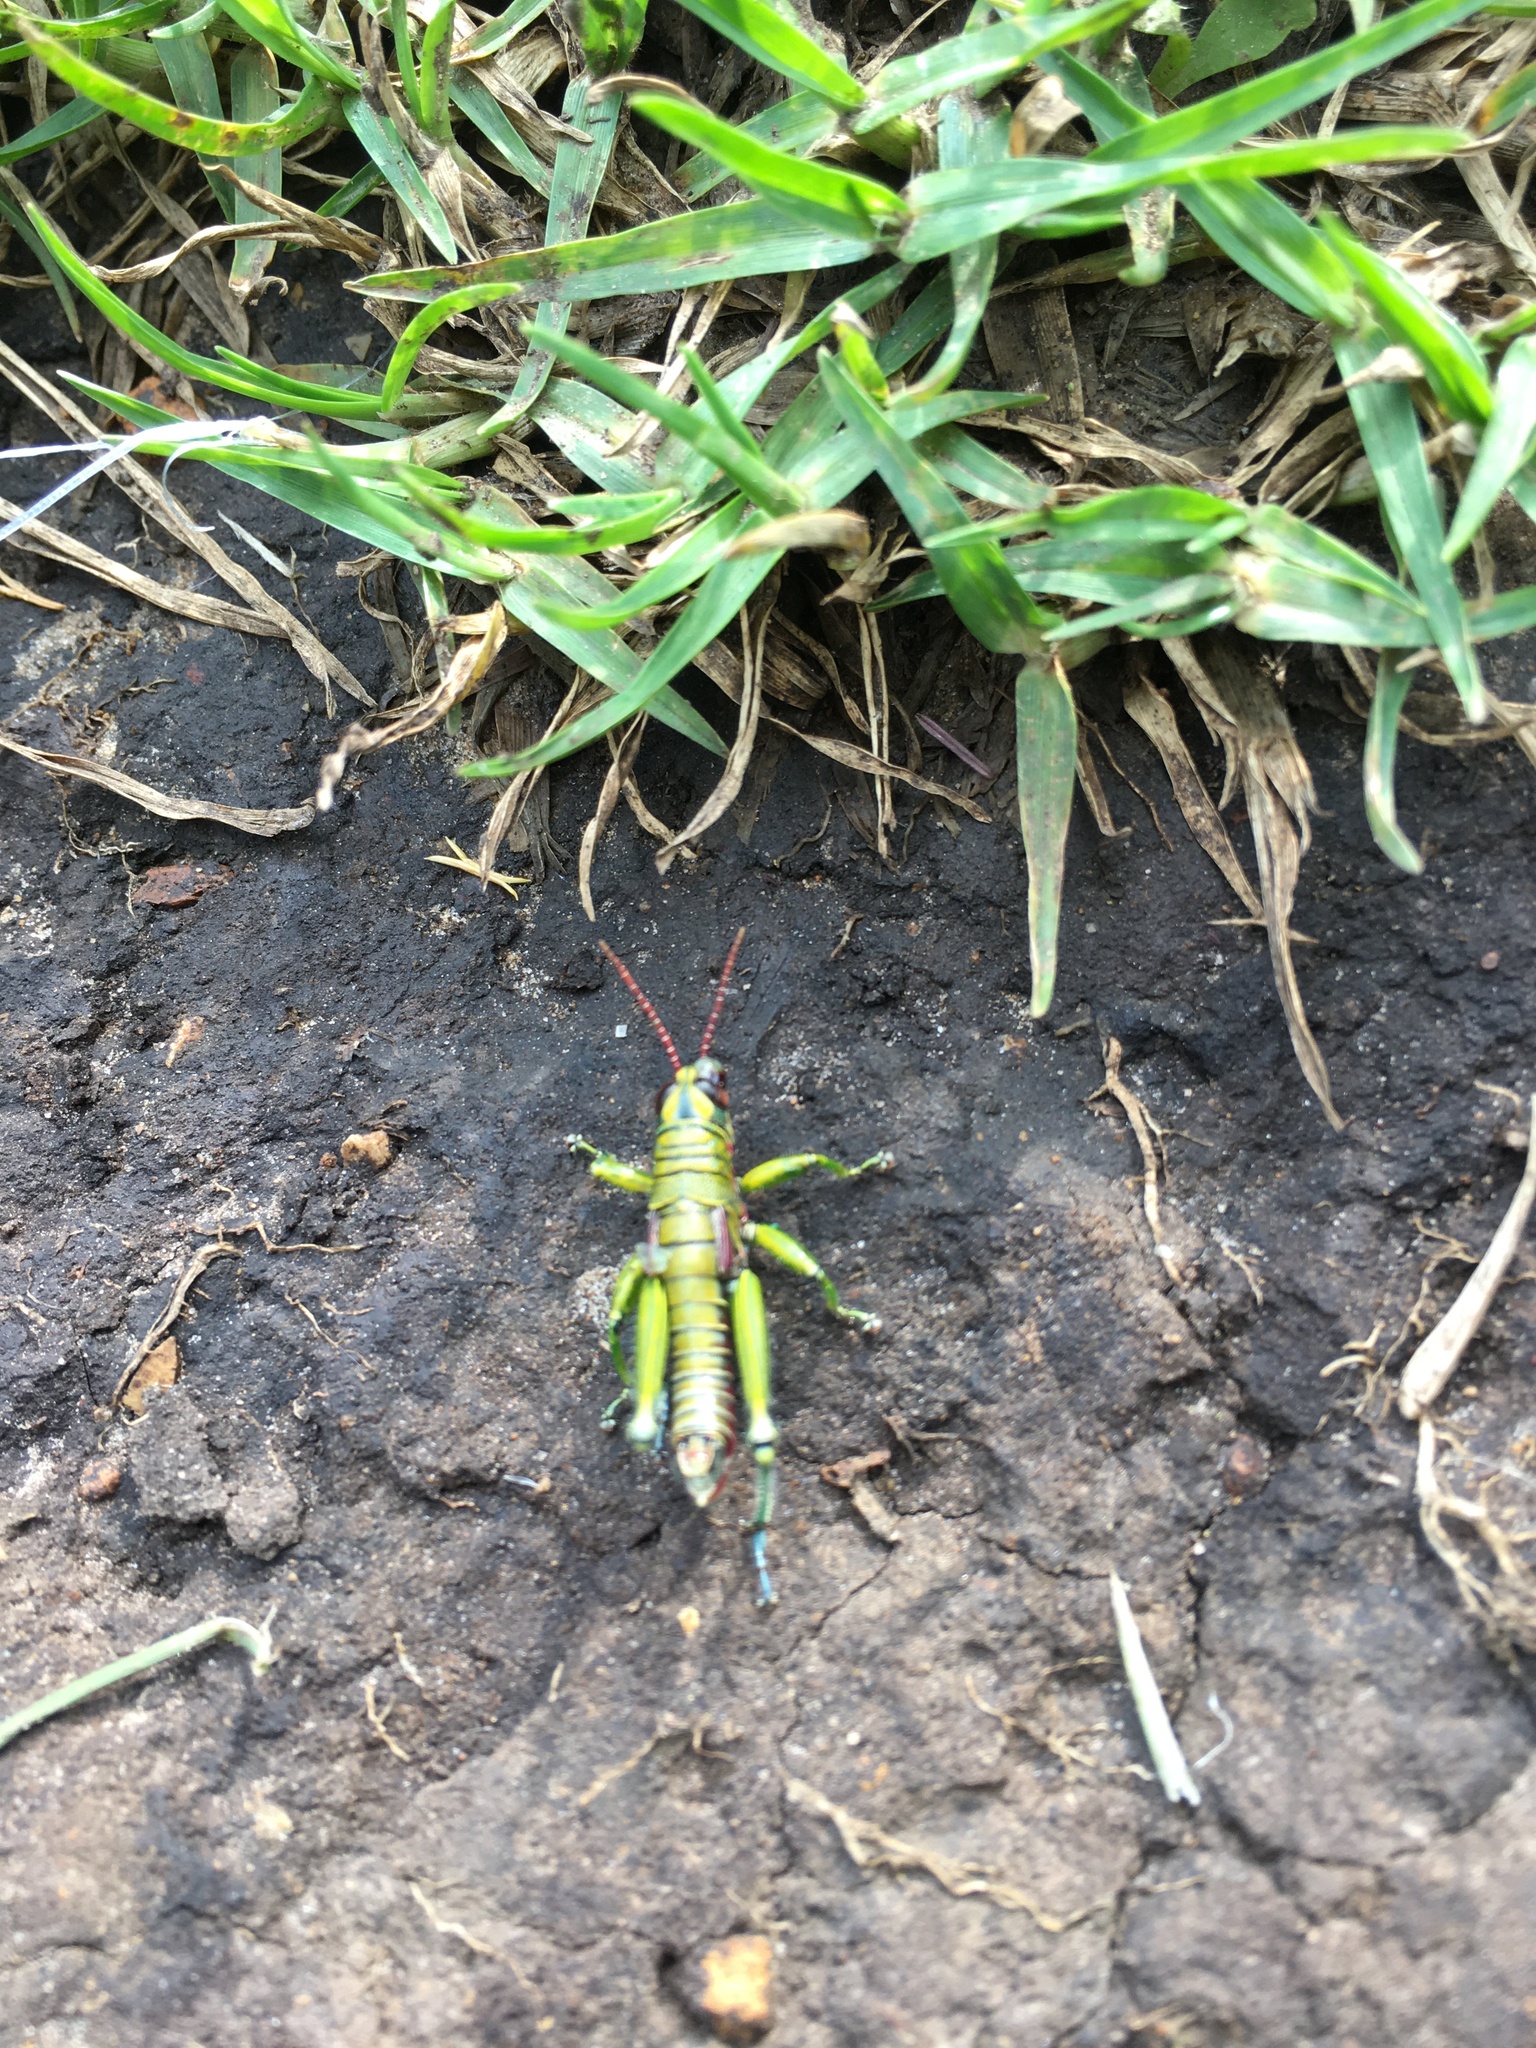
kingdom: Animalia
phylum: Arthropoda
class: Insecta
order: Orthoptera
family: Acrididae
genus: Agesander
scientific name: Agesander ruficornis
